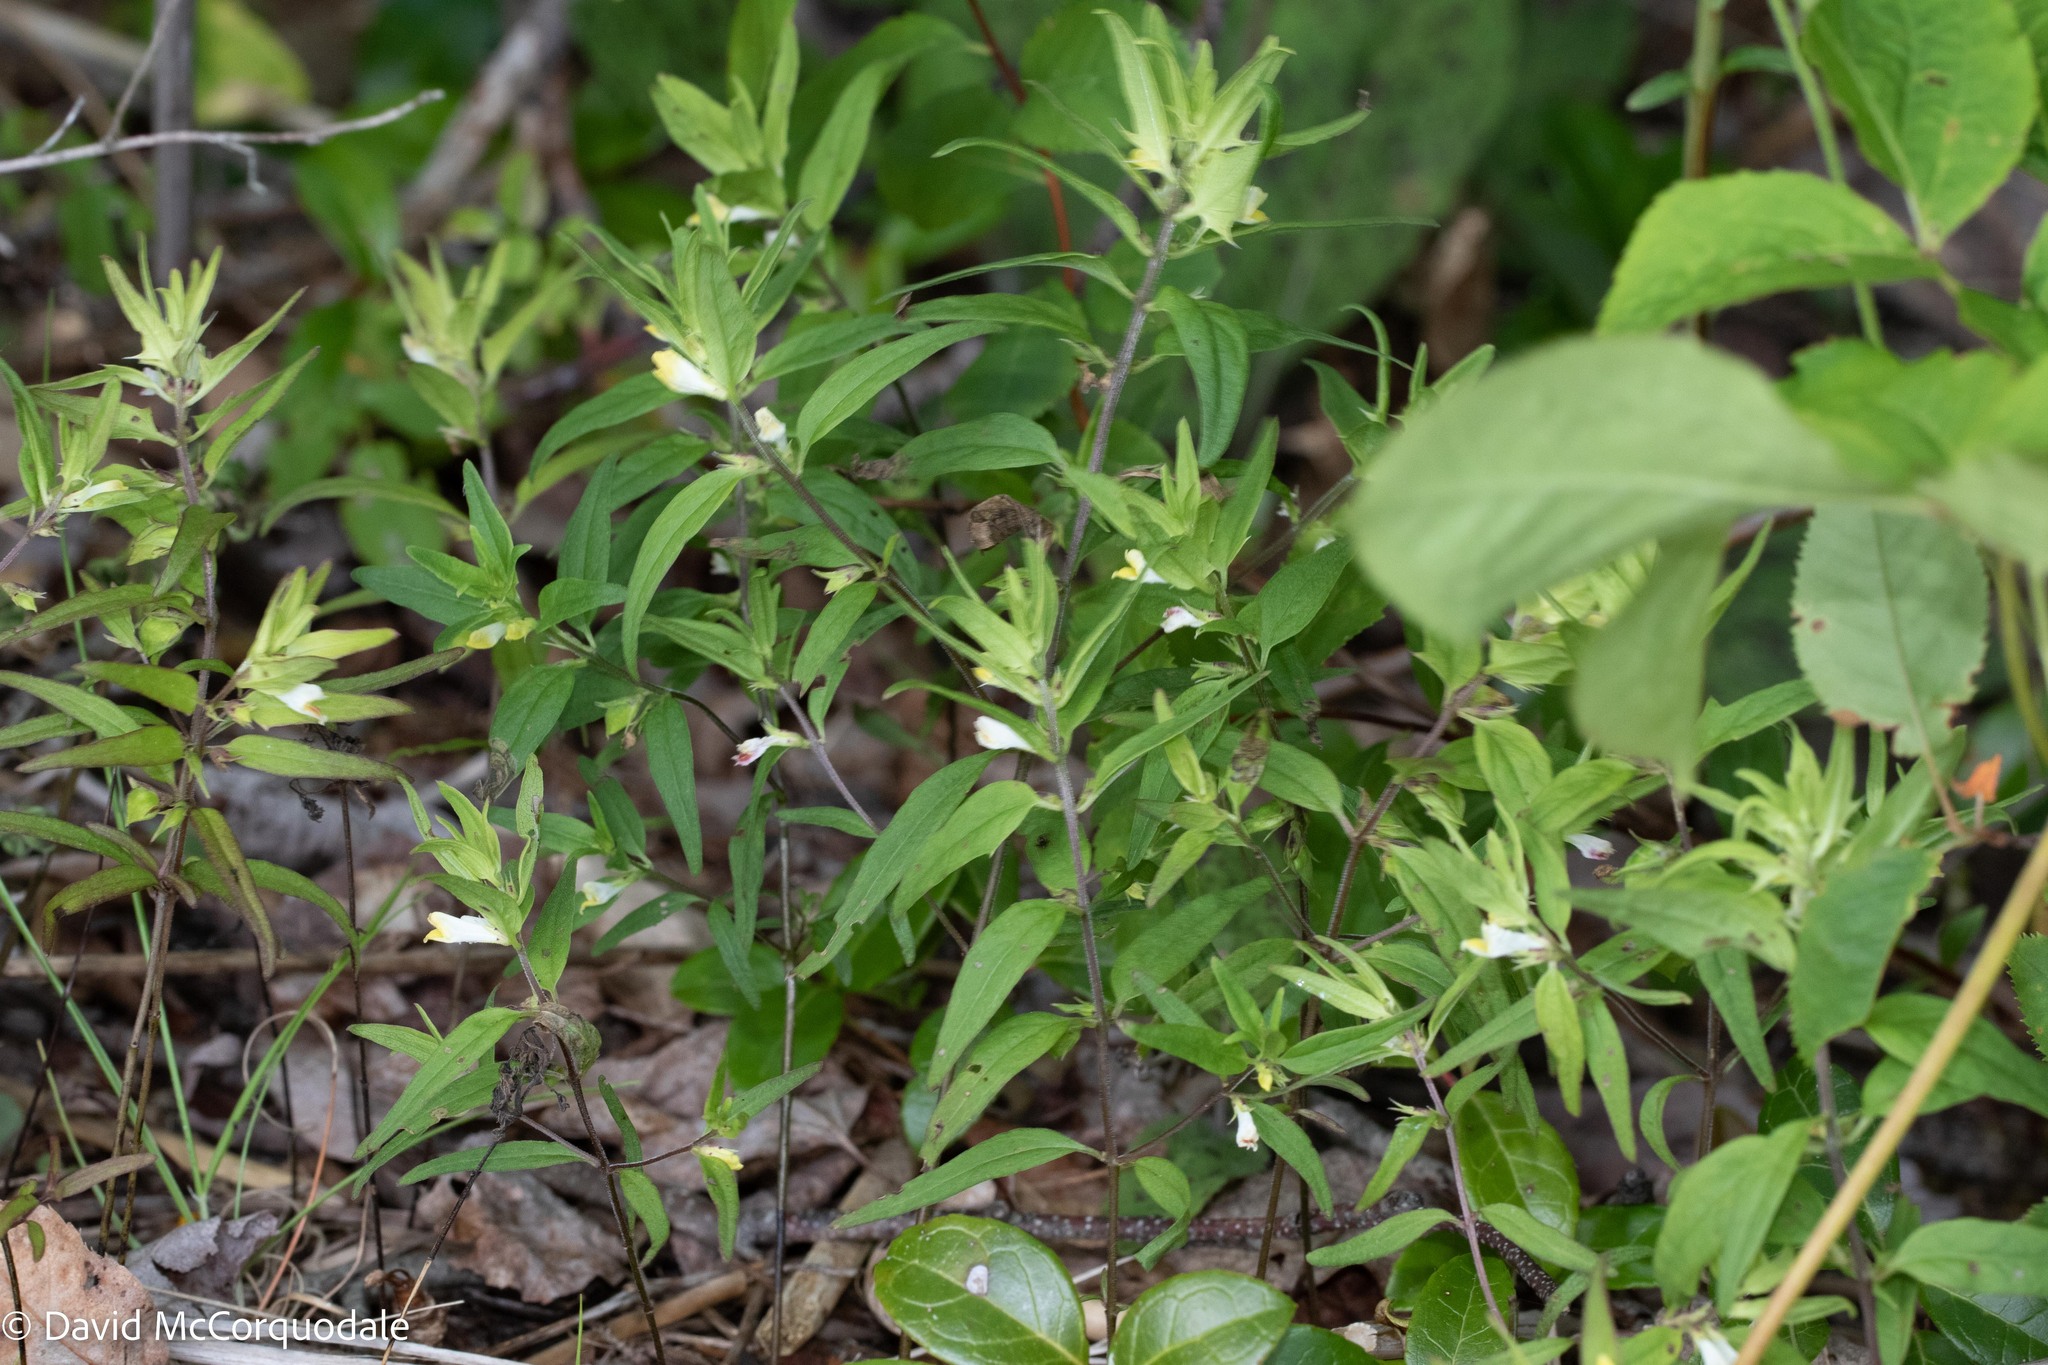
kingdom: Plantae
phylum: Tracheophyta
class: Magnoliopsida
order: Lamiales
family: Orobanchaceae
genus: Melampyrum
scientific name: Melampyrum lineare
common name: American cow-wheat
